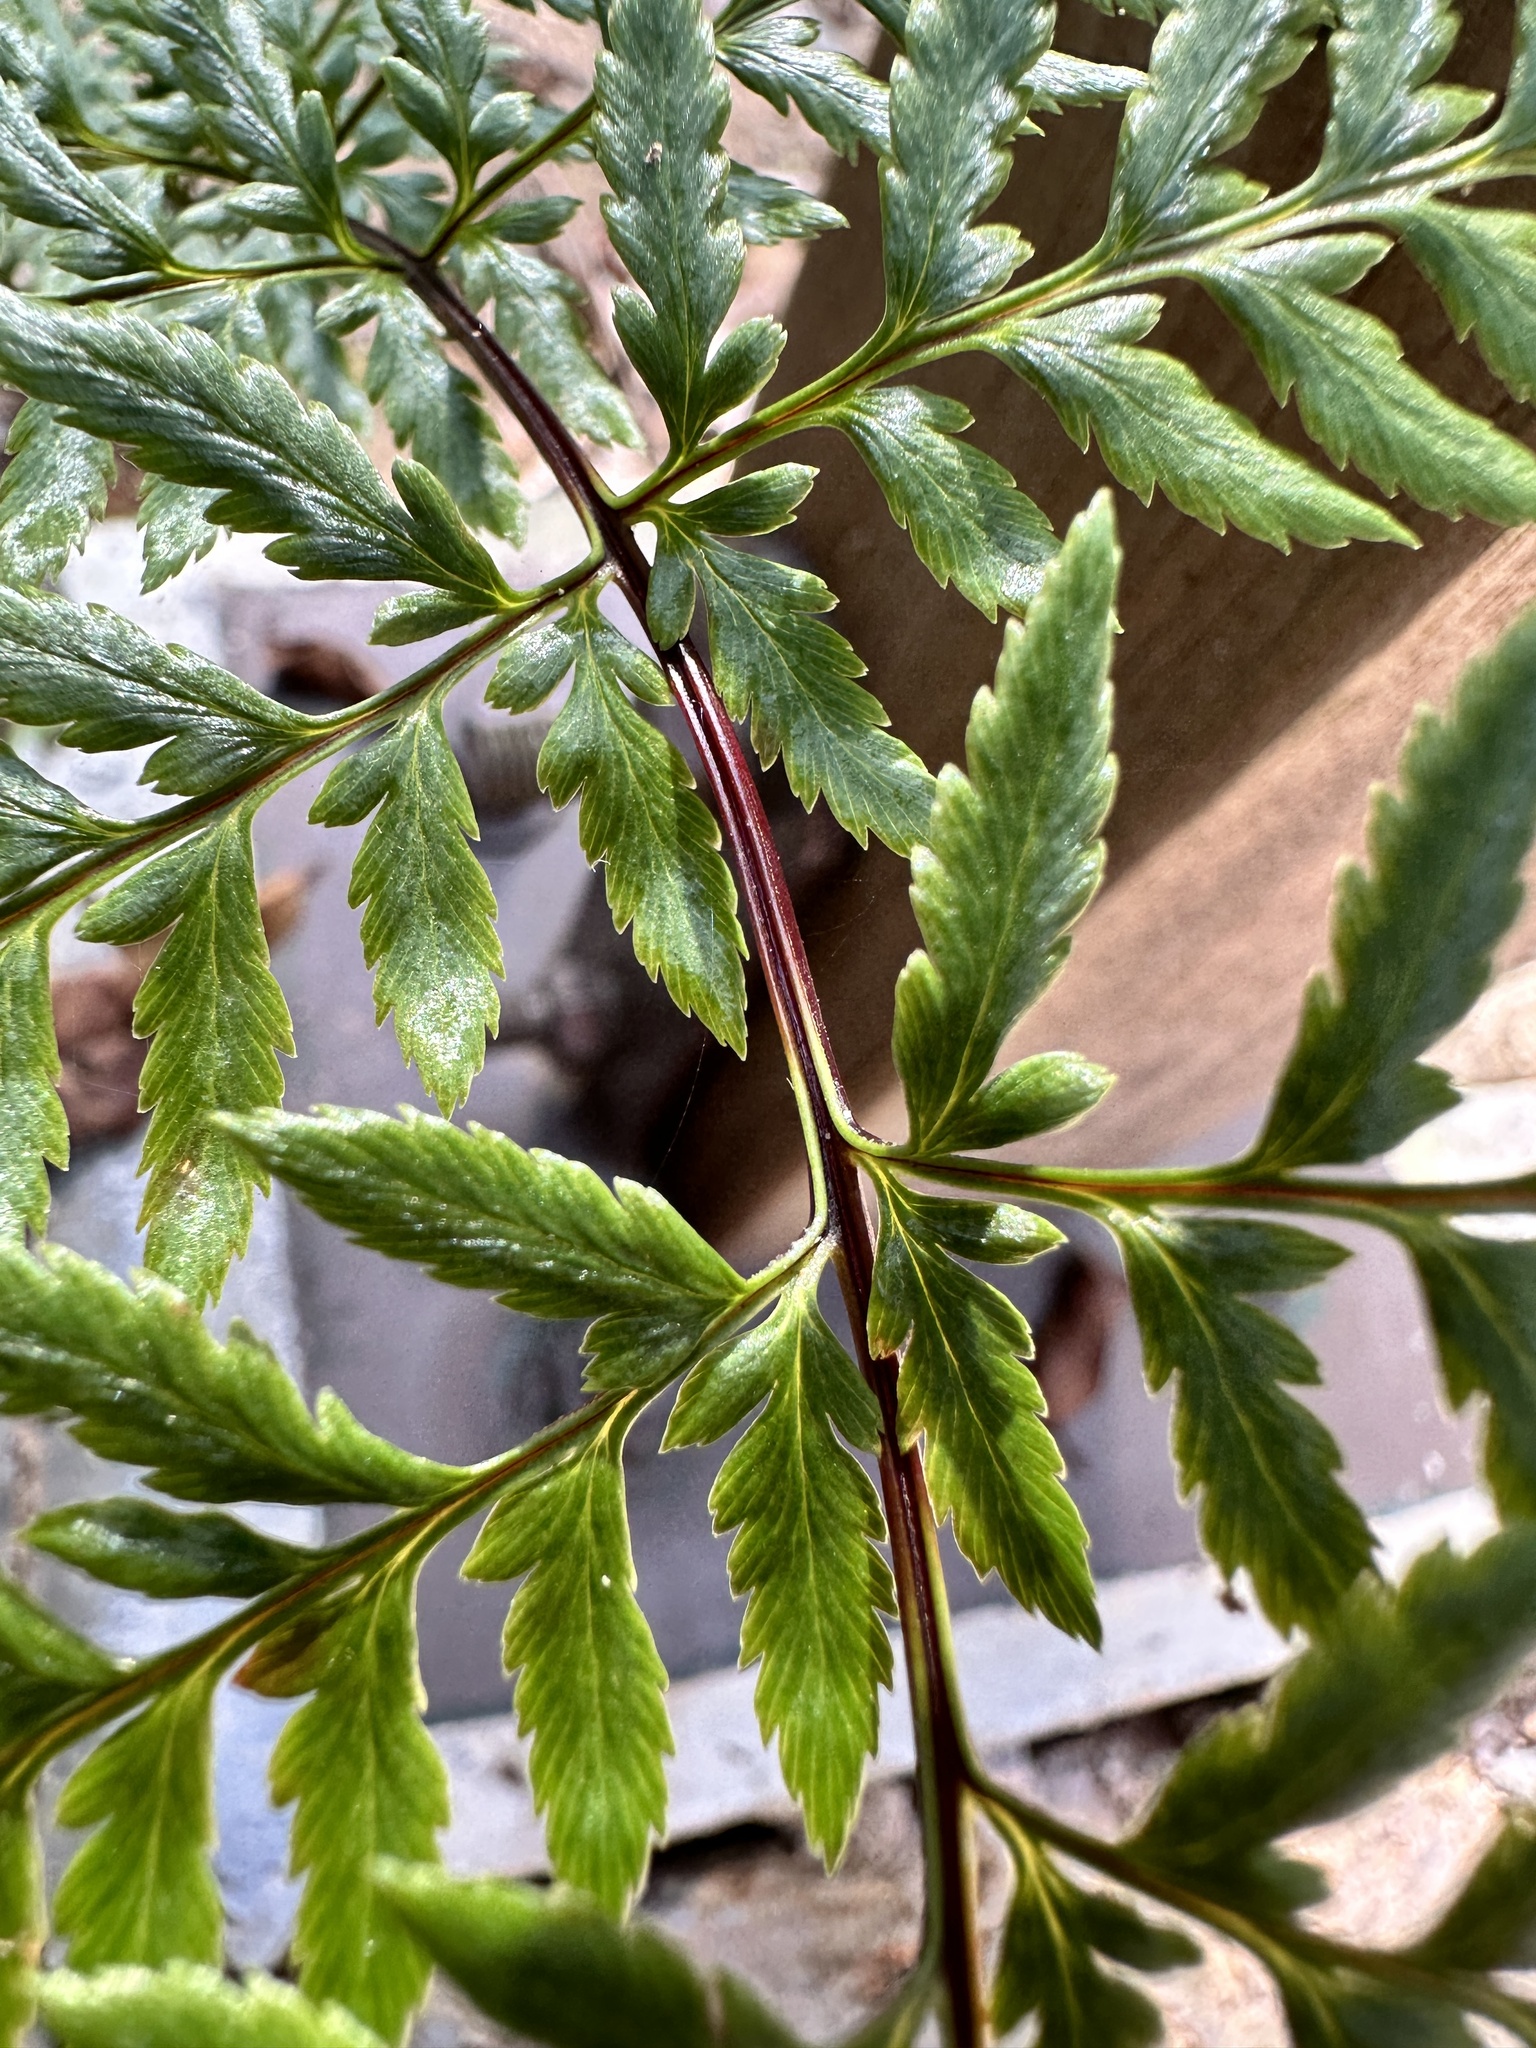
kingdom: Plantae
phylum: Tracheophyta
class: Polypodiopsida
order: Polypodiales
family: Pteridaceae
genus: Pityrogramma
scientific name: Pityrogramma calomelanos
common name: Dixie silverback fern
